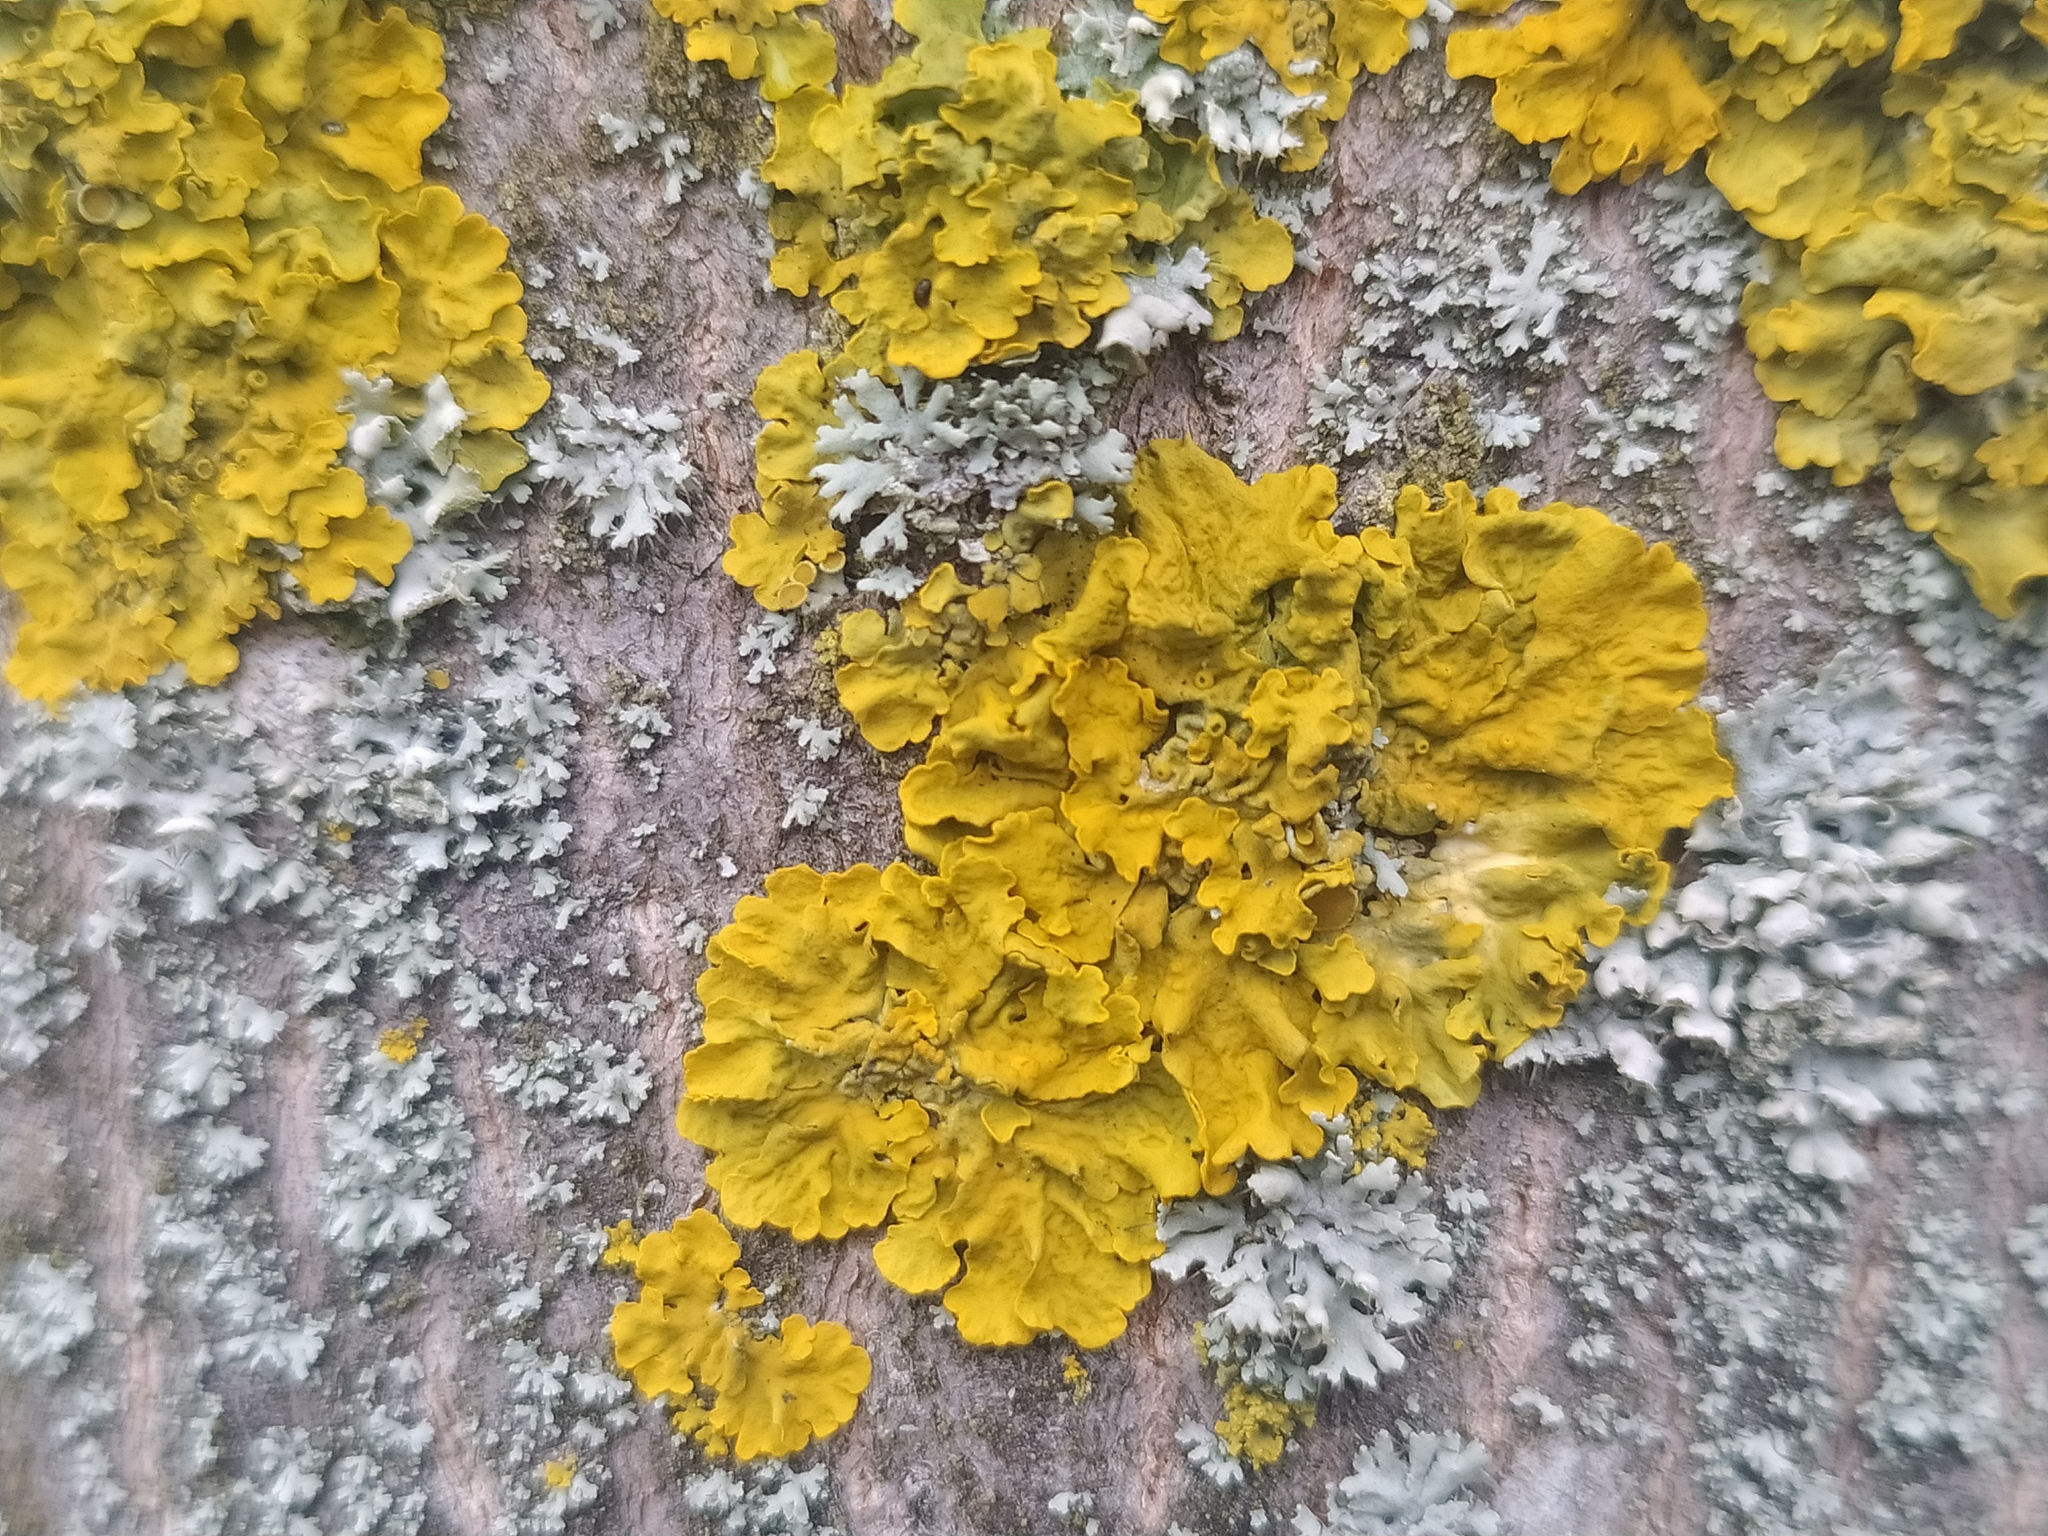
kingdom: Fungi
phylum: Ascomycota
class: Lecanoromycetes
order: Teloschistales
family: Teloschistaceae
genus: Xanthoria
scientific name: Xanthoria parietina
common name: Common orange lichen
